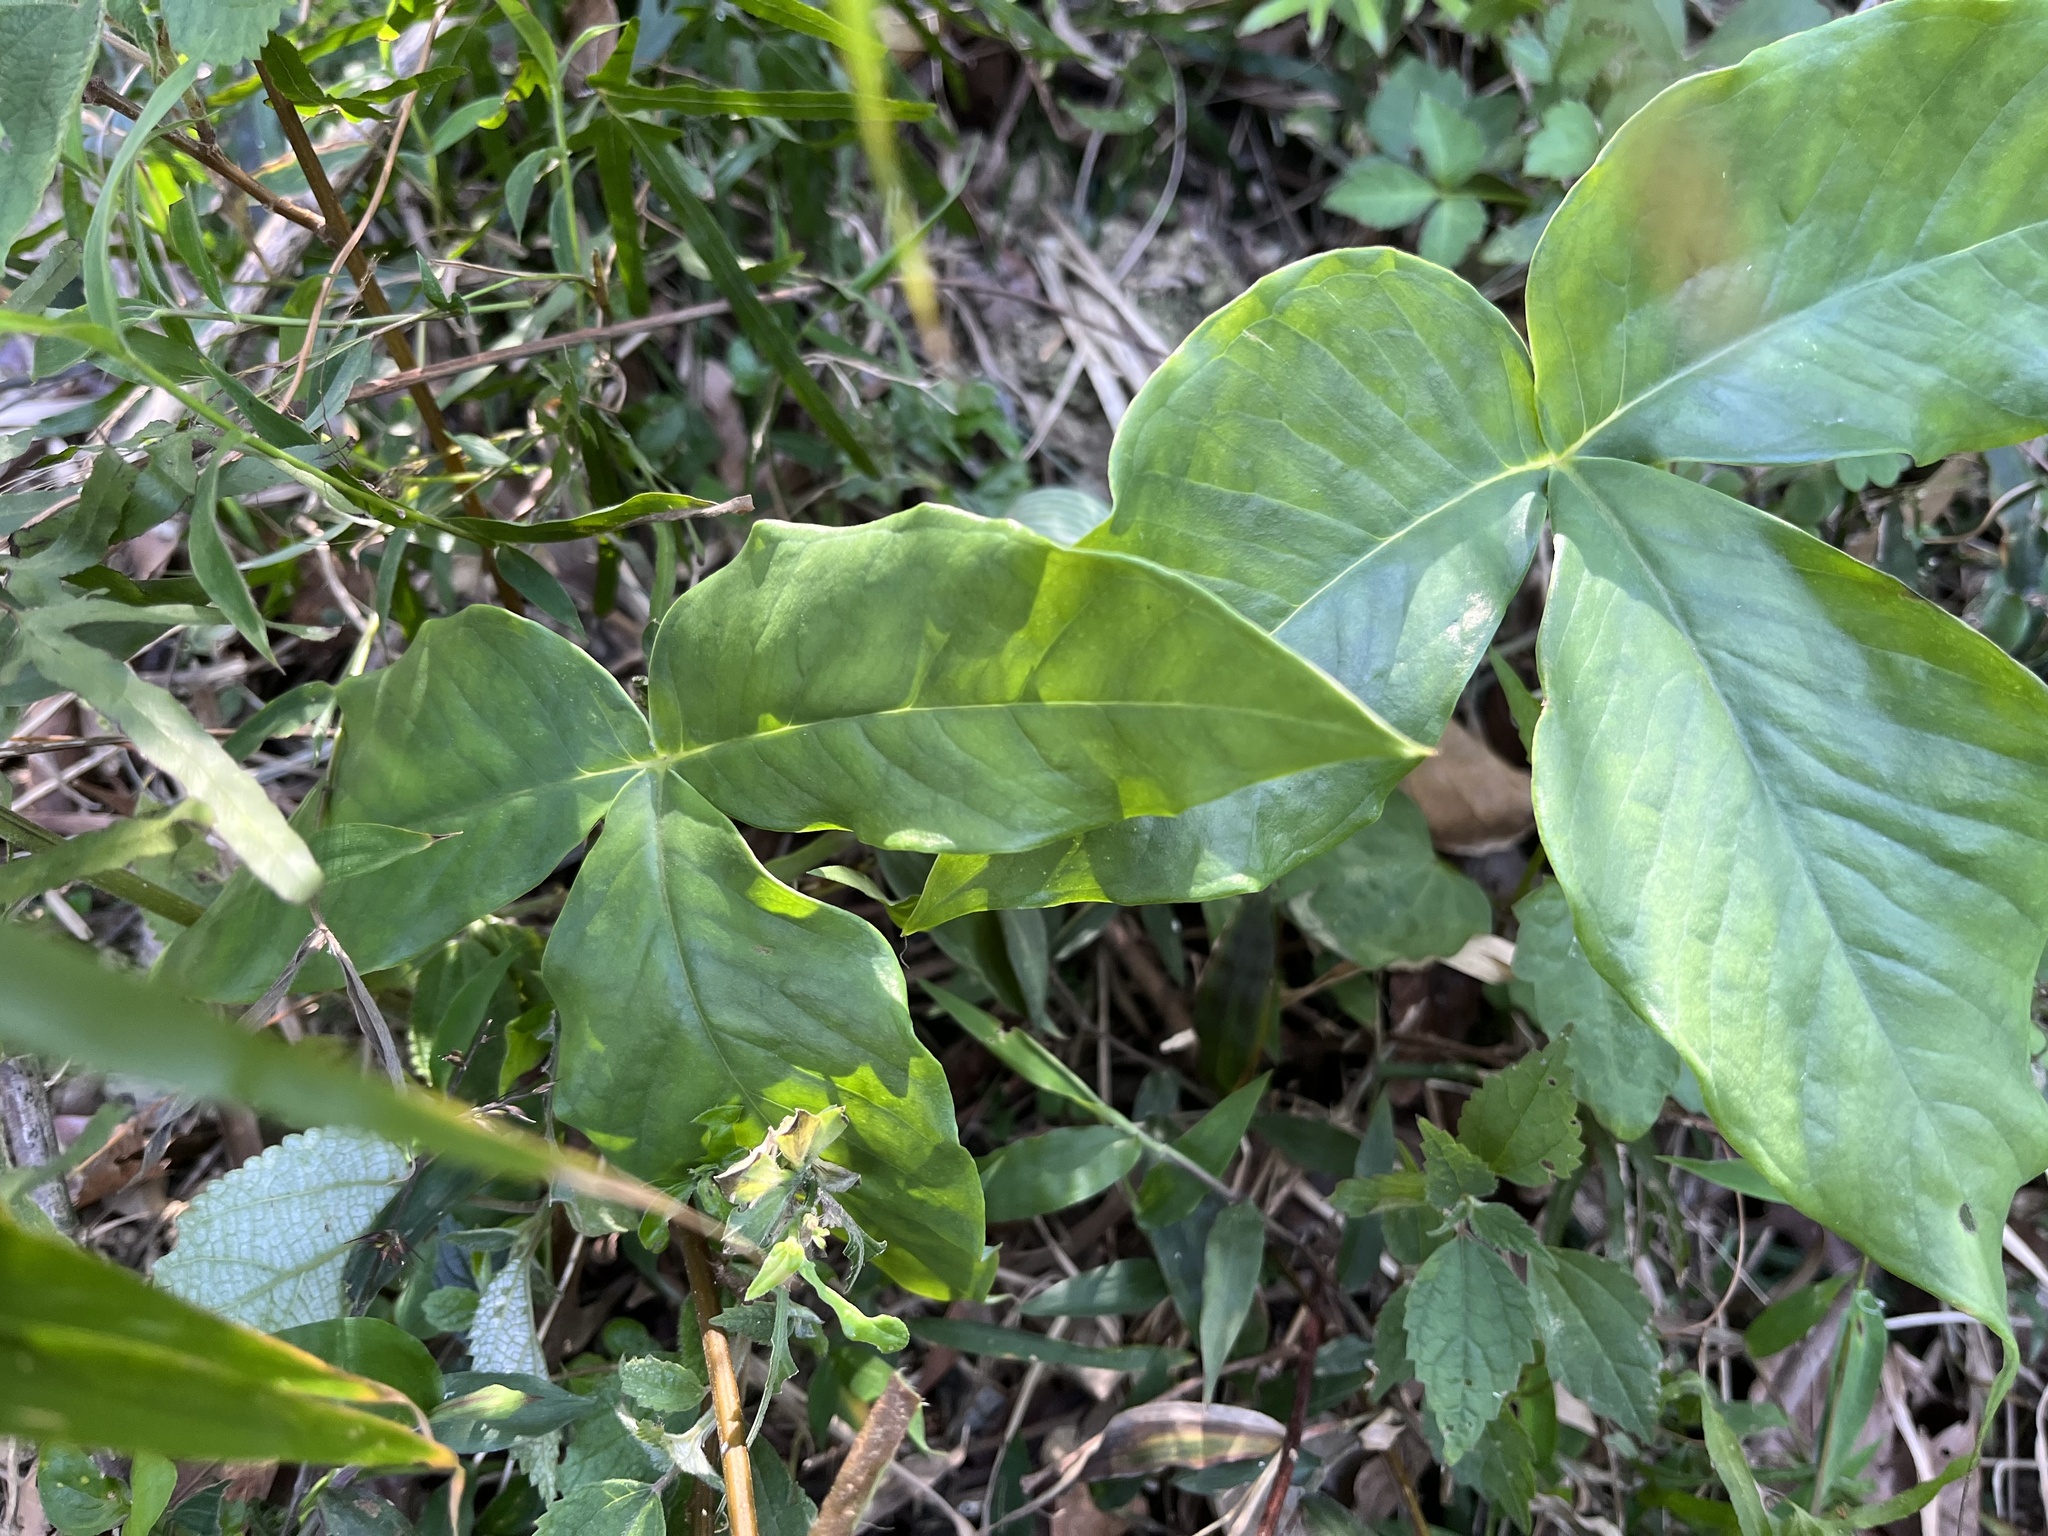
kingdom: Plantae
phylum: Tracheophyta
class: Liliopsida
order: Alismatales
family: Araceae
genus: Arisaema
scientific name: Arisaema ringens
